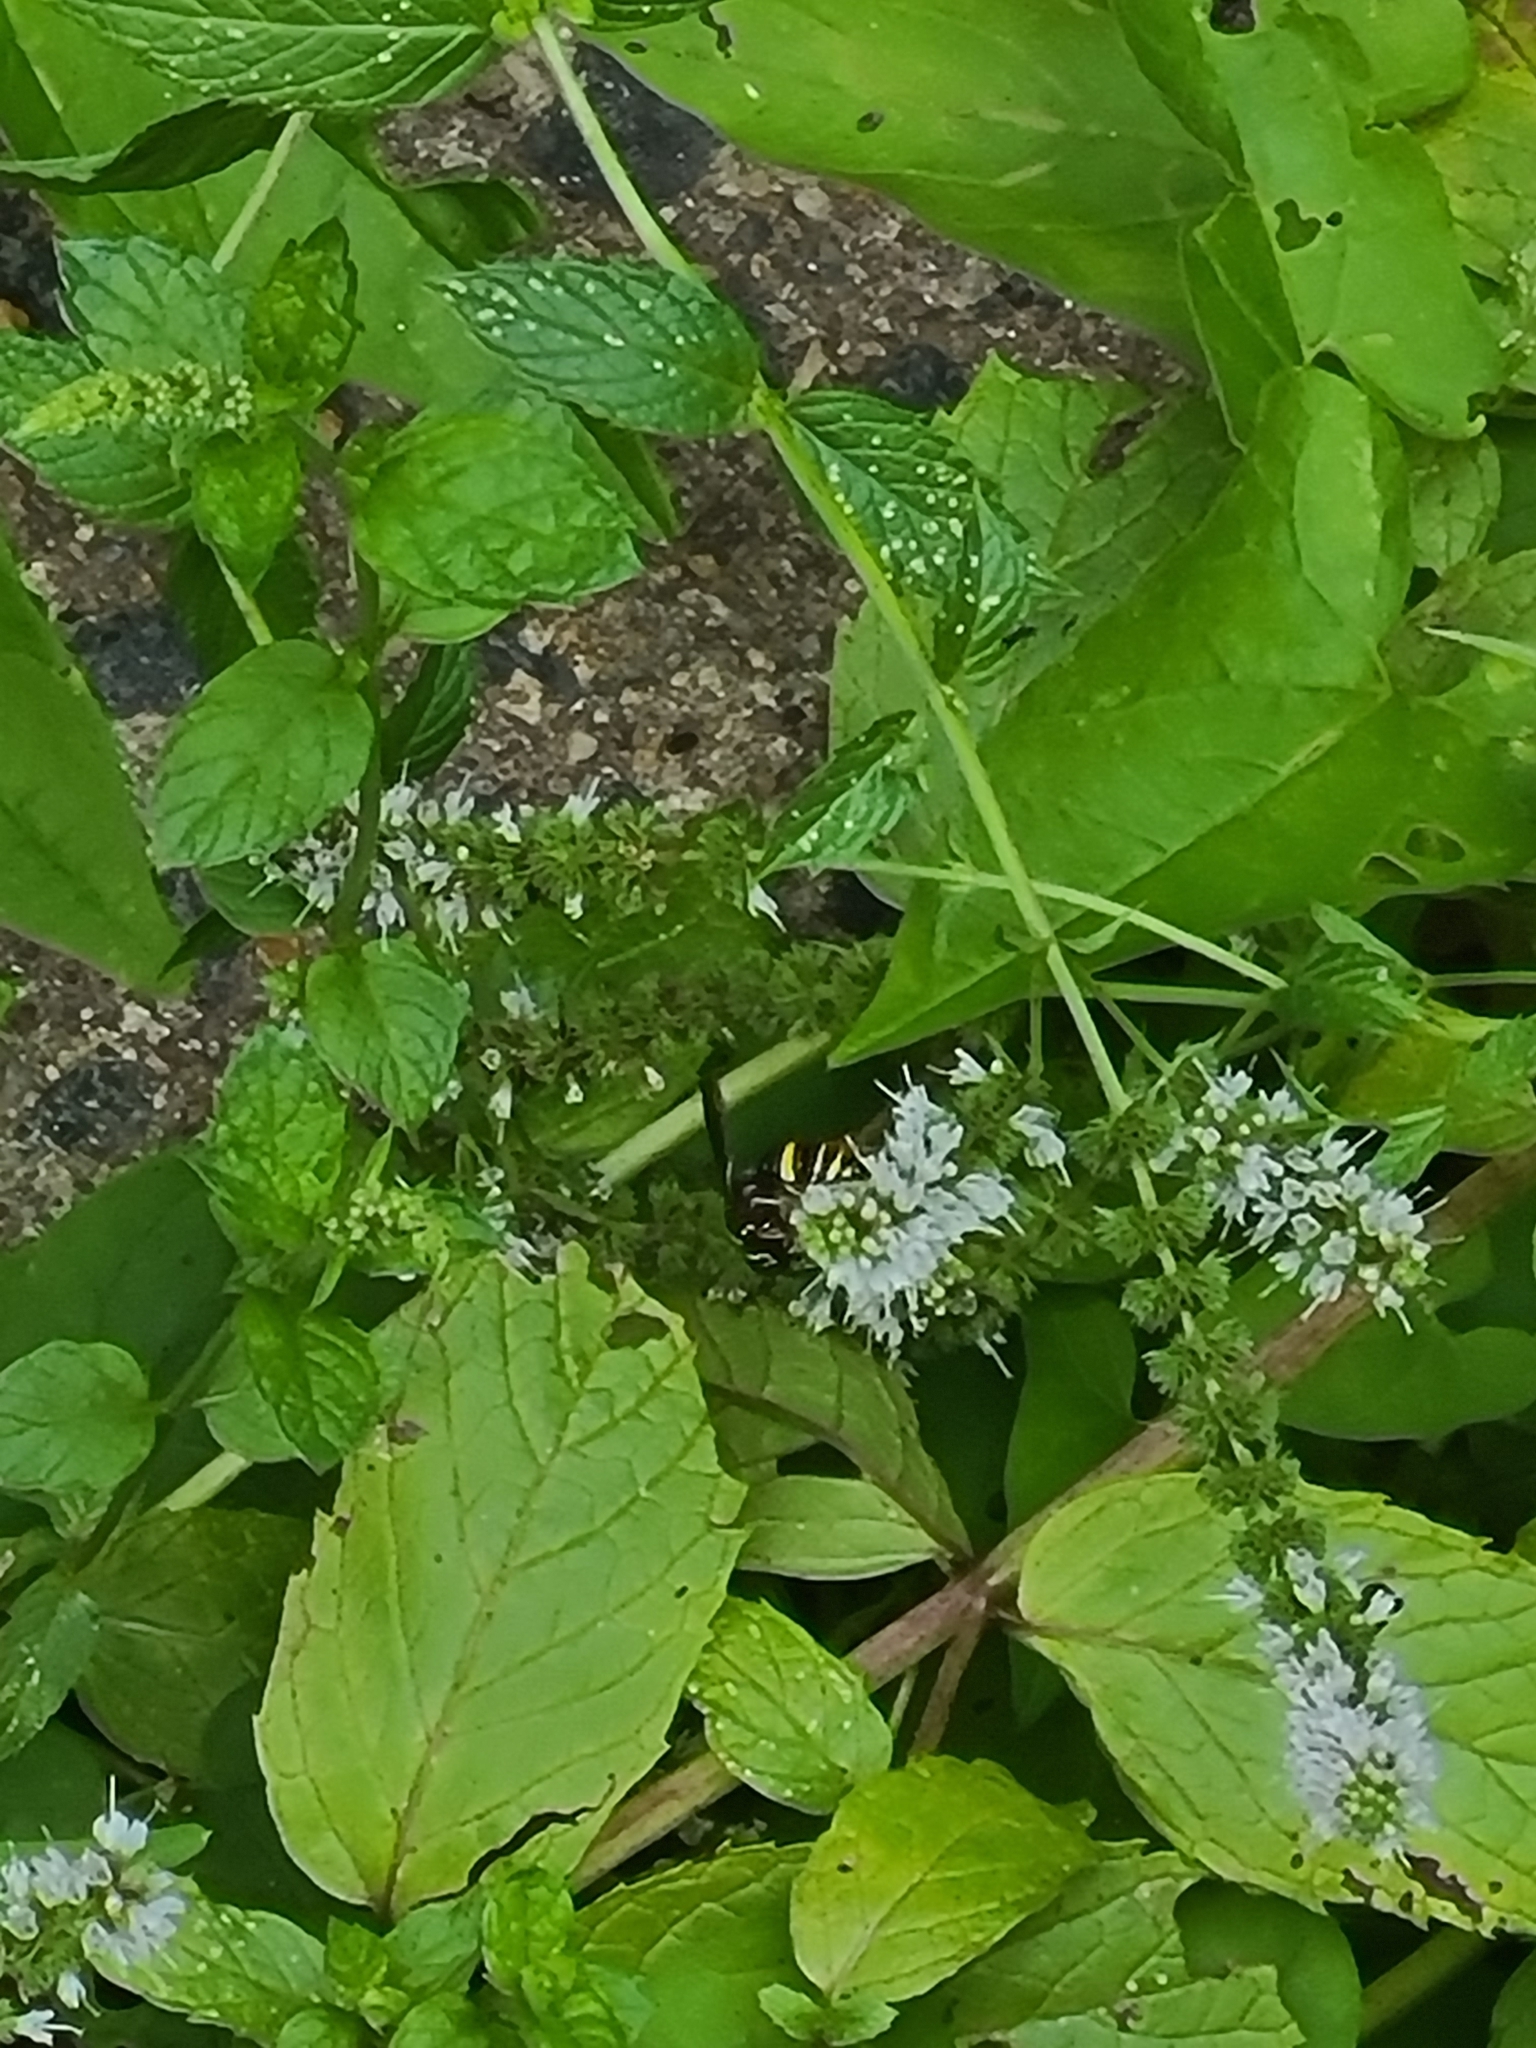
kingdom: Animalia
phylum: Arthropoda
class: Insecta
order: Hymenoptera
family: Crabronidae
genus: Philanthus
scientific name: Philanthus gibbosus
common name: Humped beewolf
